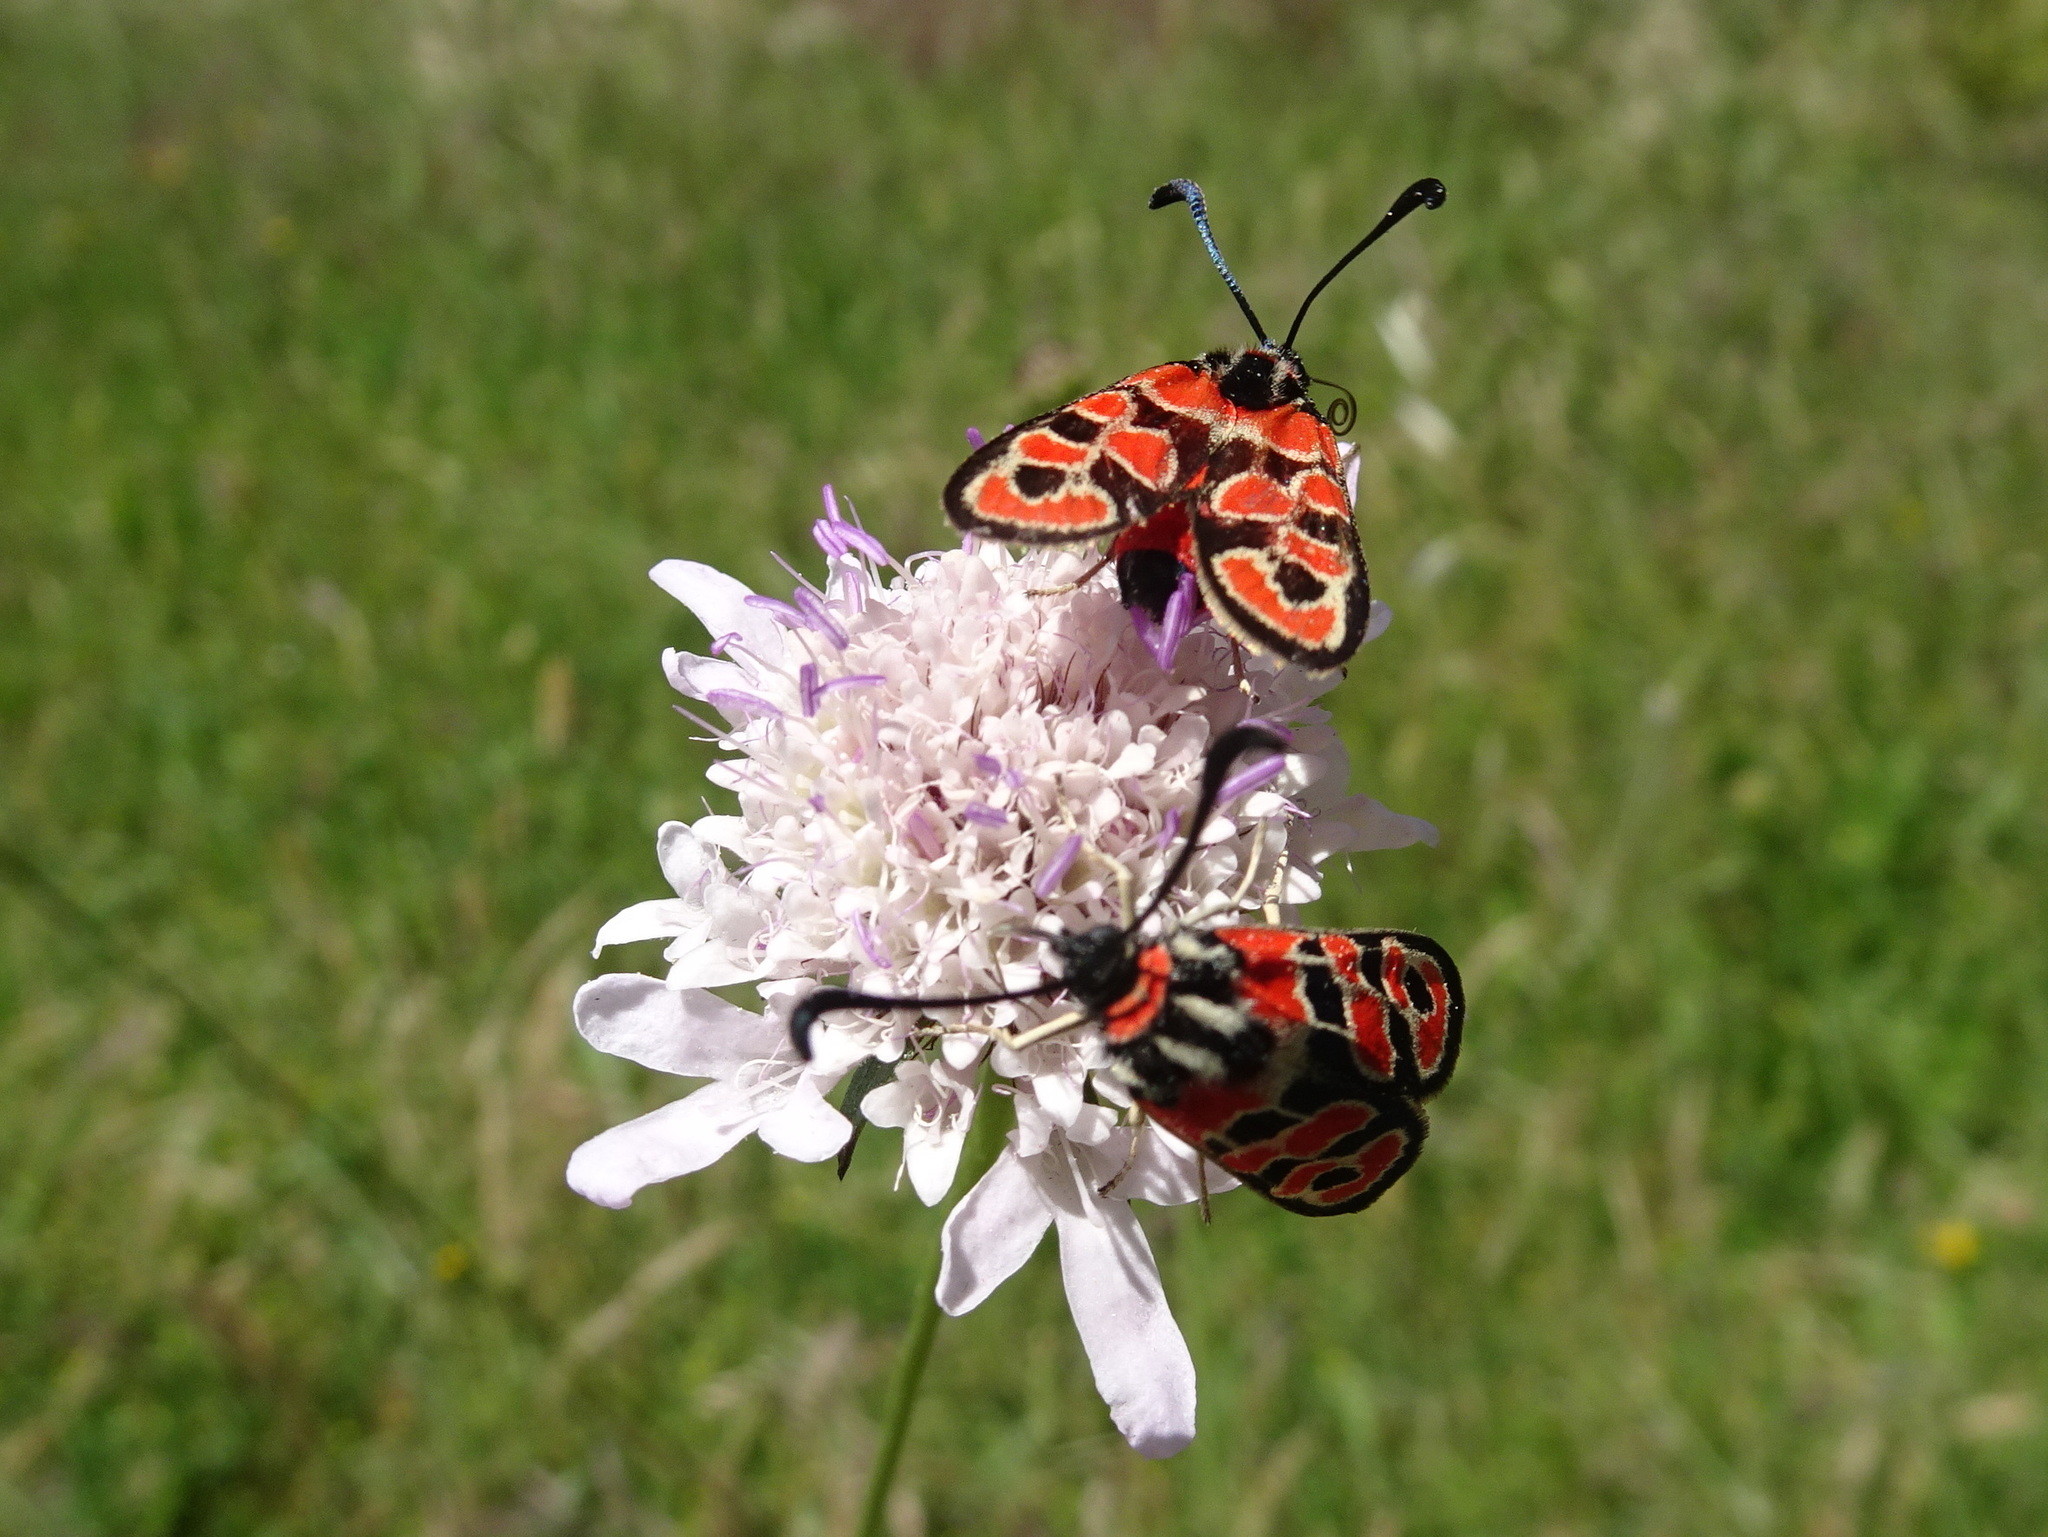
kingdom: Animalia
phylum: Arthropoda
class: Insecta
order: Lepidoptera
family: Zygaenidae
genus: Zygaena
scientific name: Zygaena fausta
